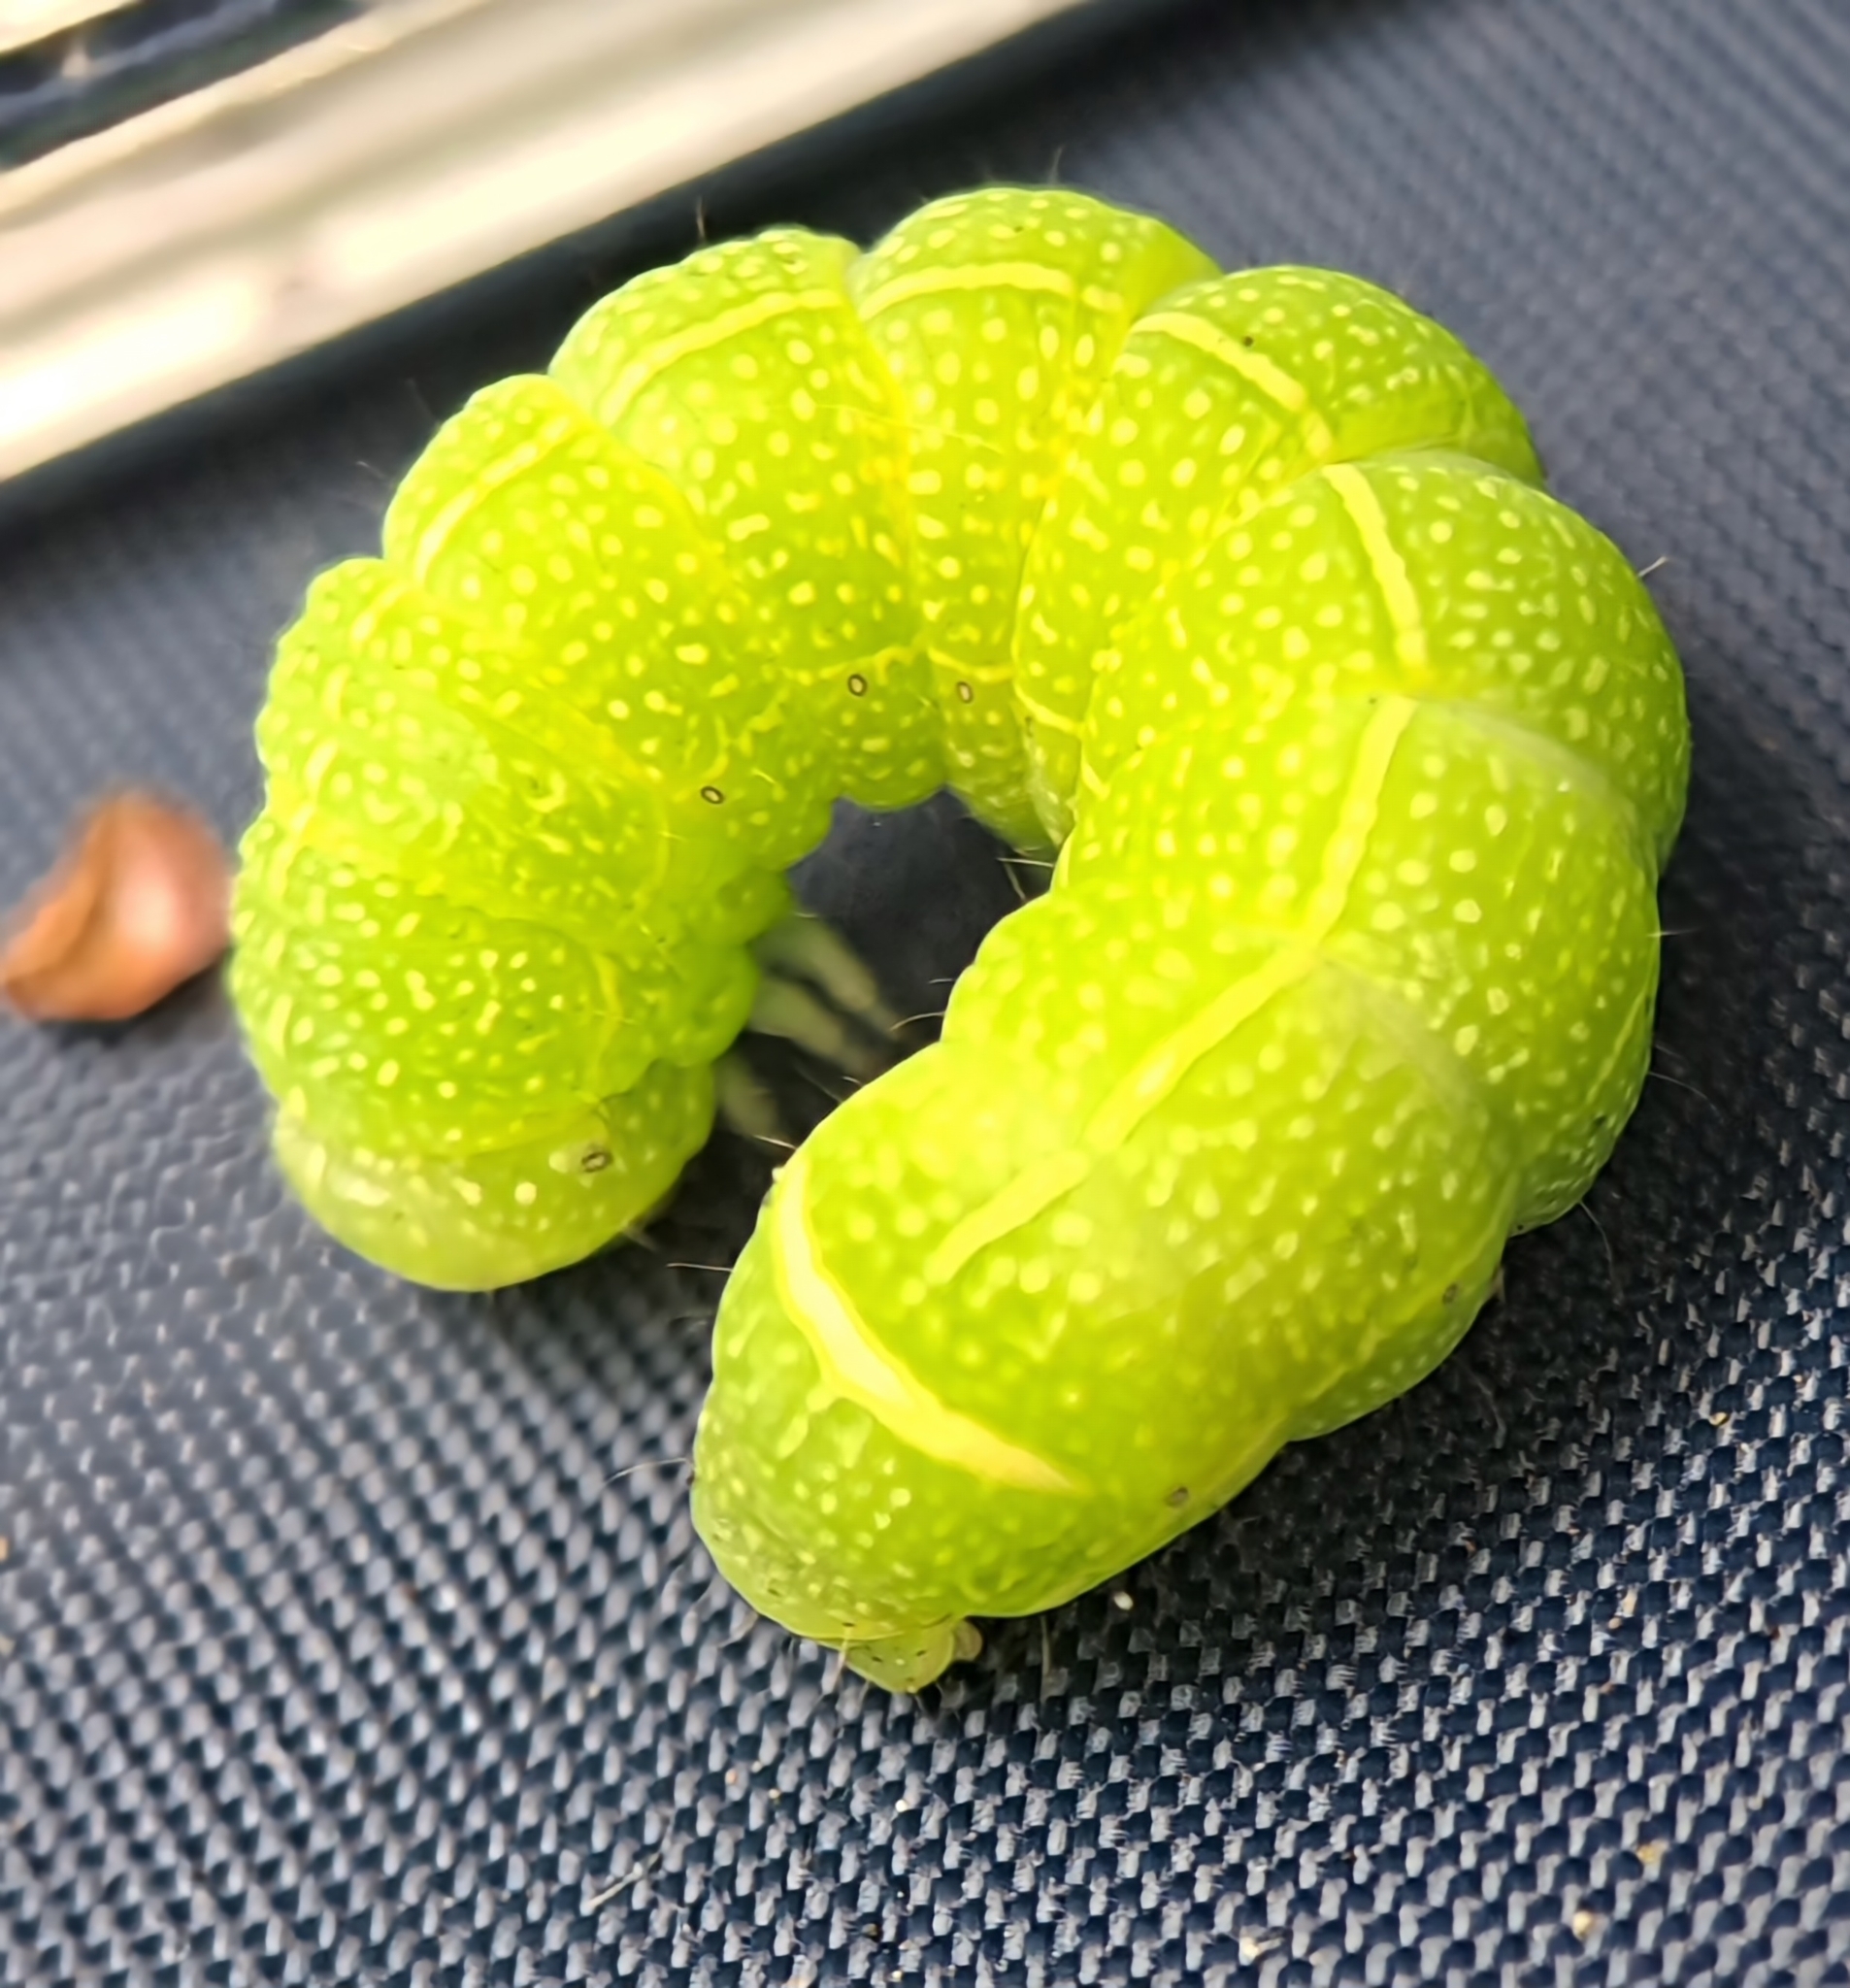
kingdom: Animalia
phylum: Arthropoda
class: Insecta
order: Lepidoptera
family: Noctuidae
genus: Orthosia
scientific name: Orthosia cerasi
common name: Common quaker
